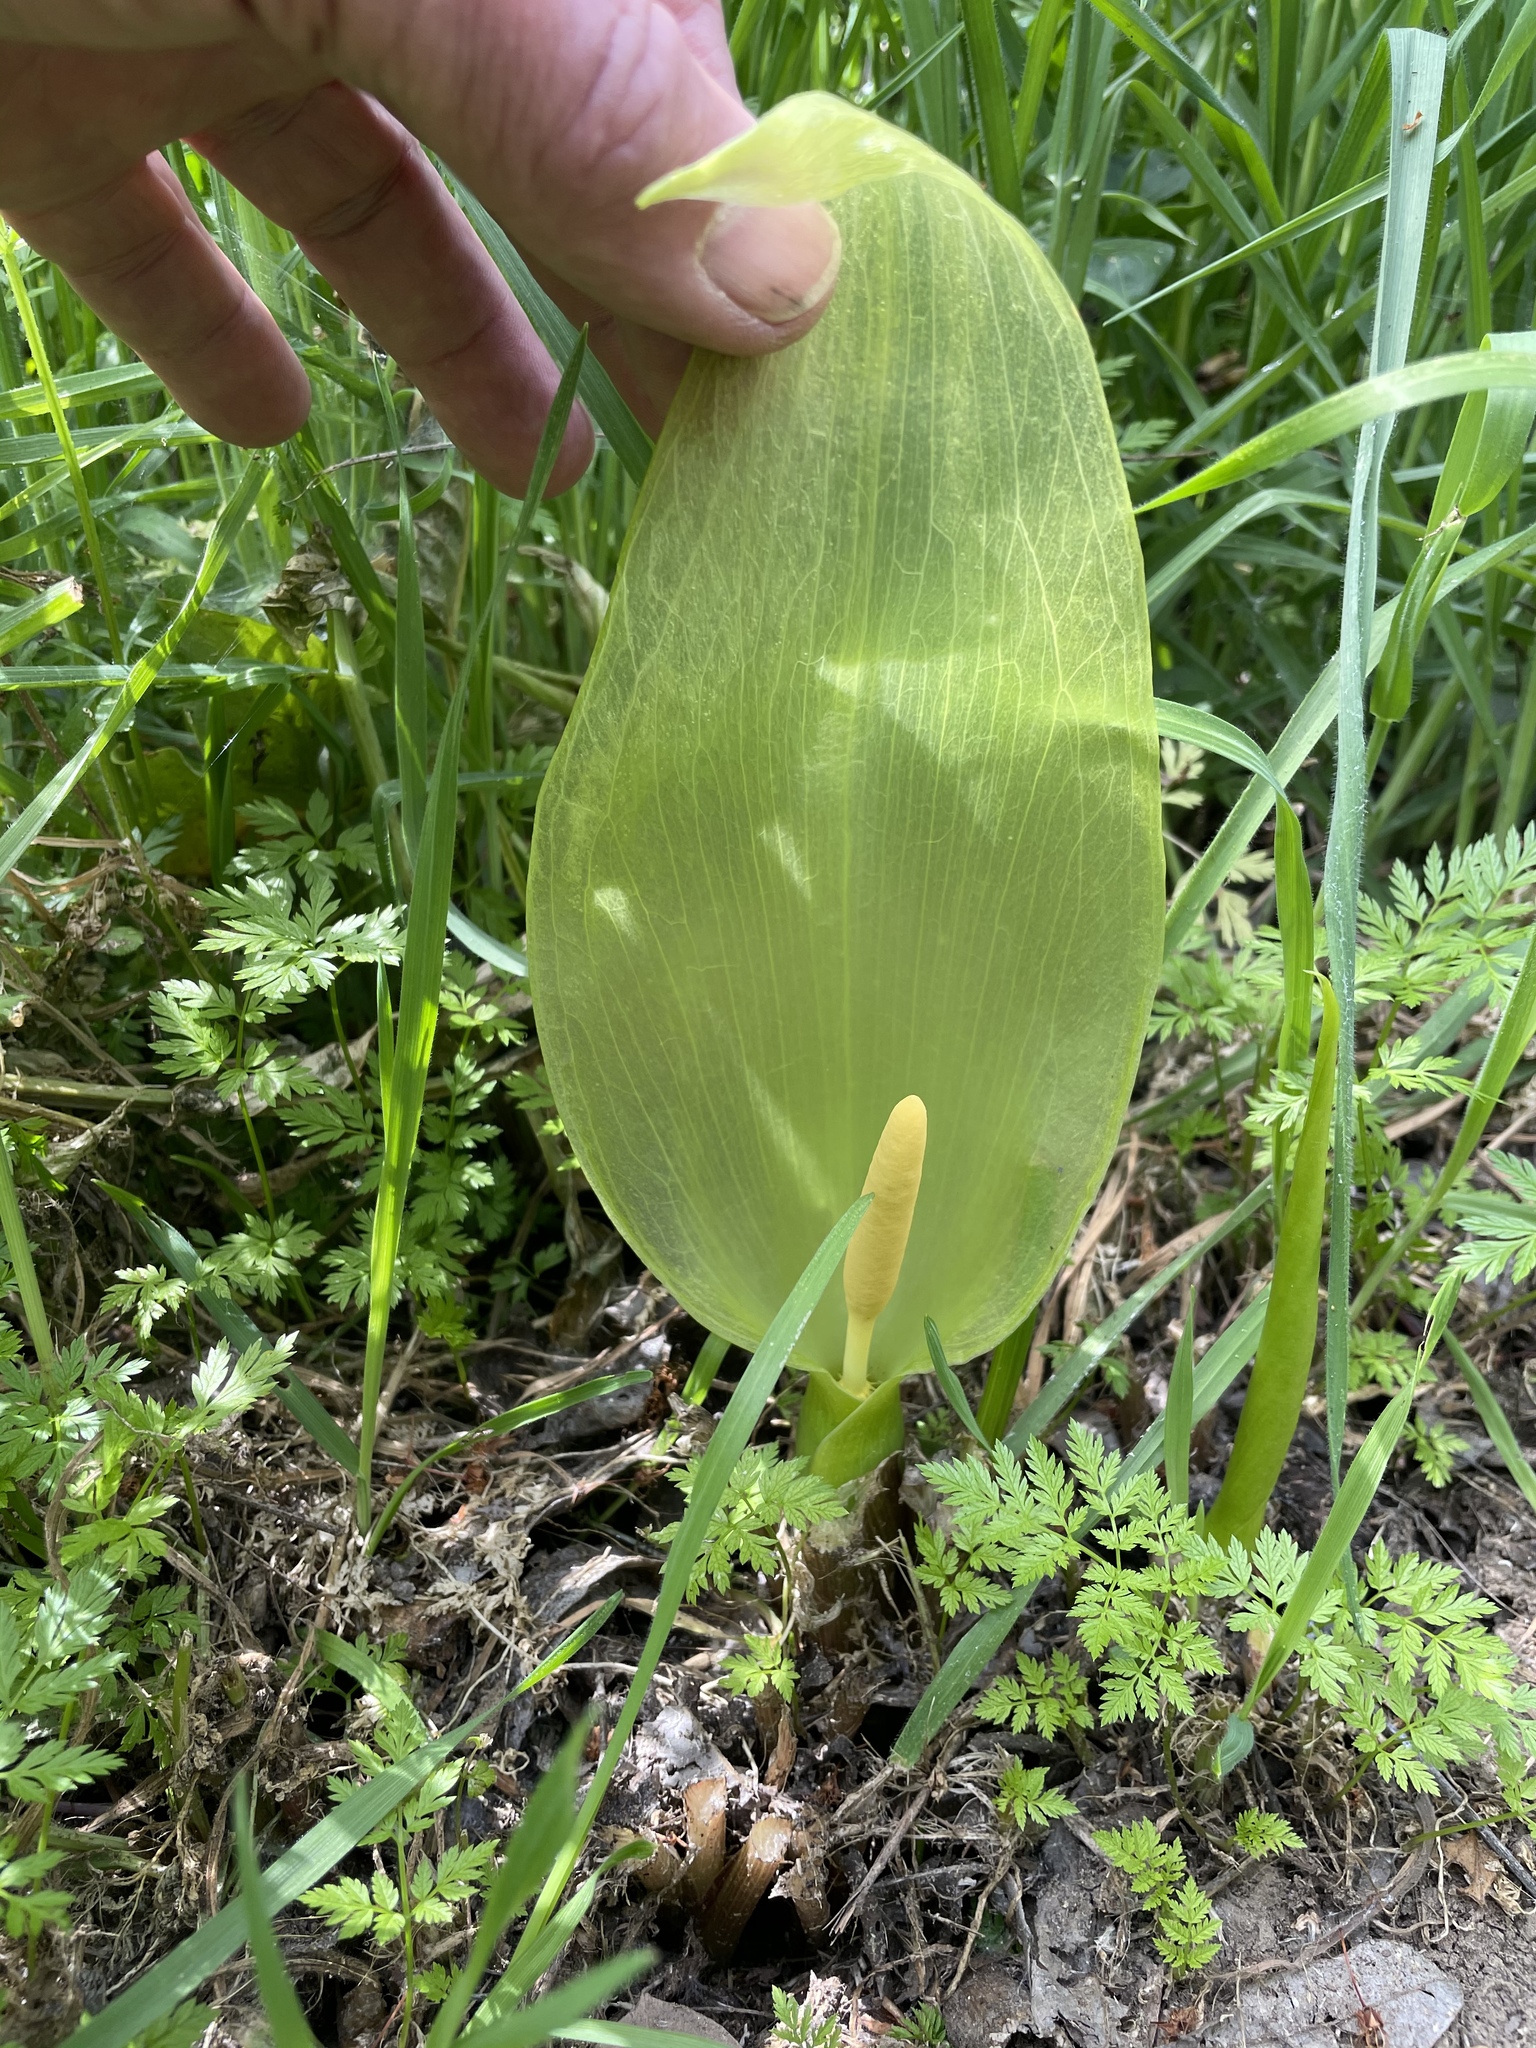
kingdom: Plantae
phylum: Tracheophyta
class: Liliopsida
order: Alismatales
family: Araceae
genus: Arum
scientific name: Arum italicum
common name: Italian lords-and-ladies
